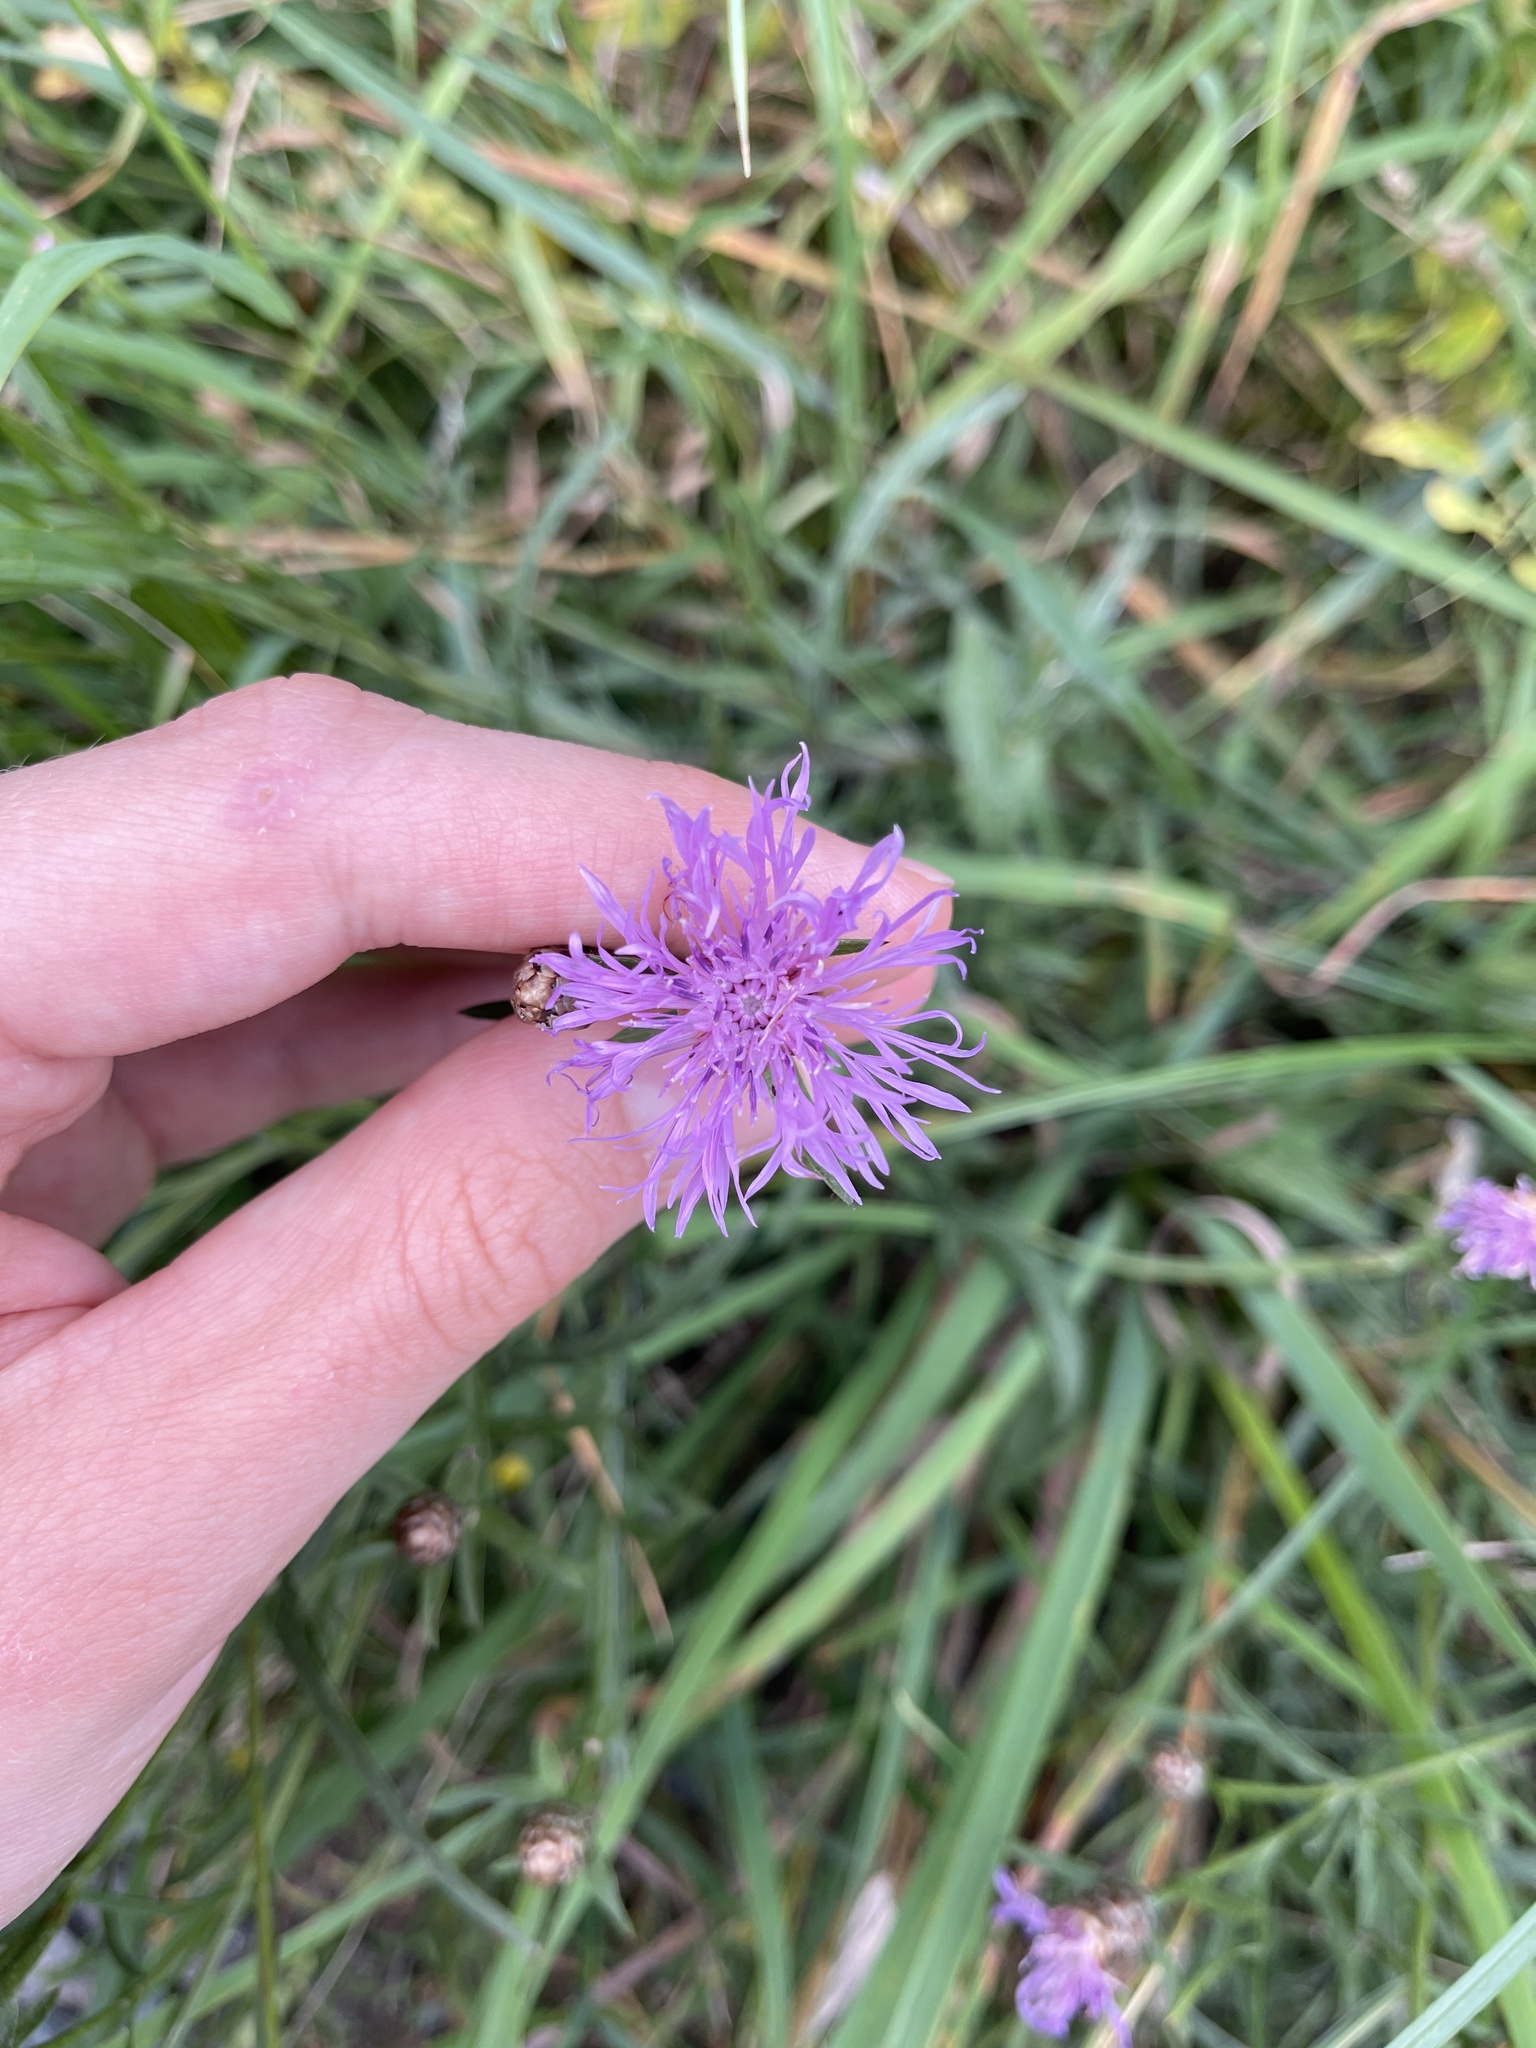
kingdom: Plantae
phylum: Tracheophyta
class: Magnoliopsida
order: Asterales
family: Asteraceae
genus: Centaurea
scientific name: Centaurea jacea
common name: Brown knapweed
